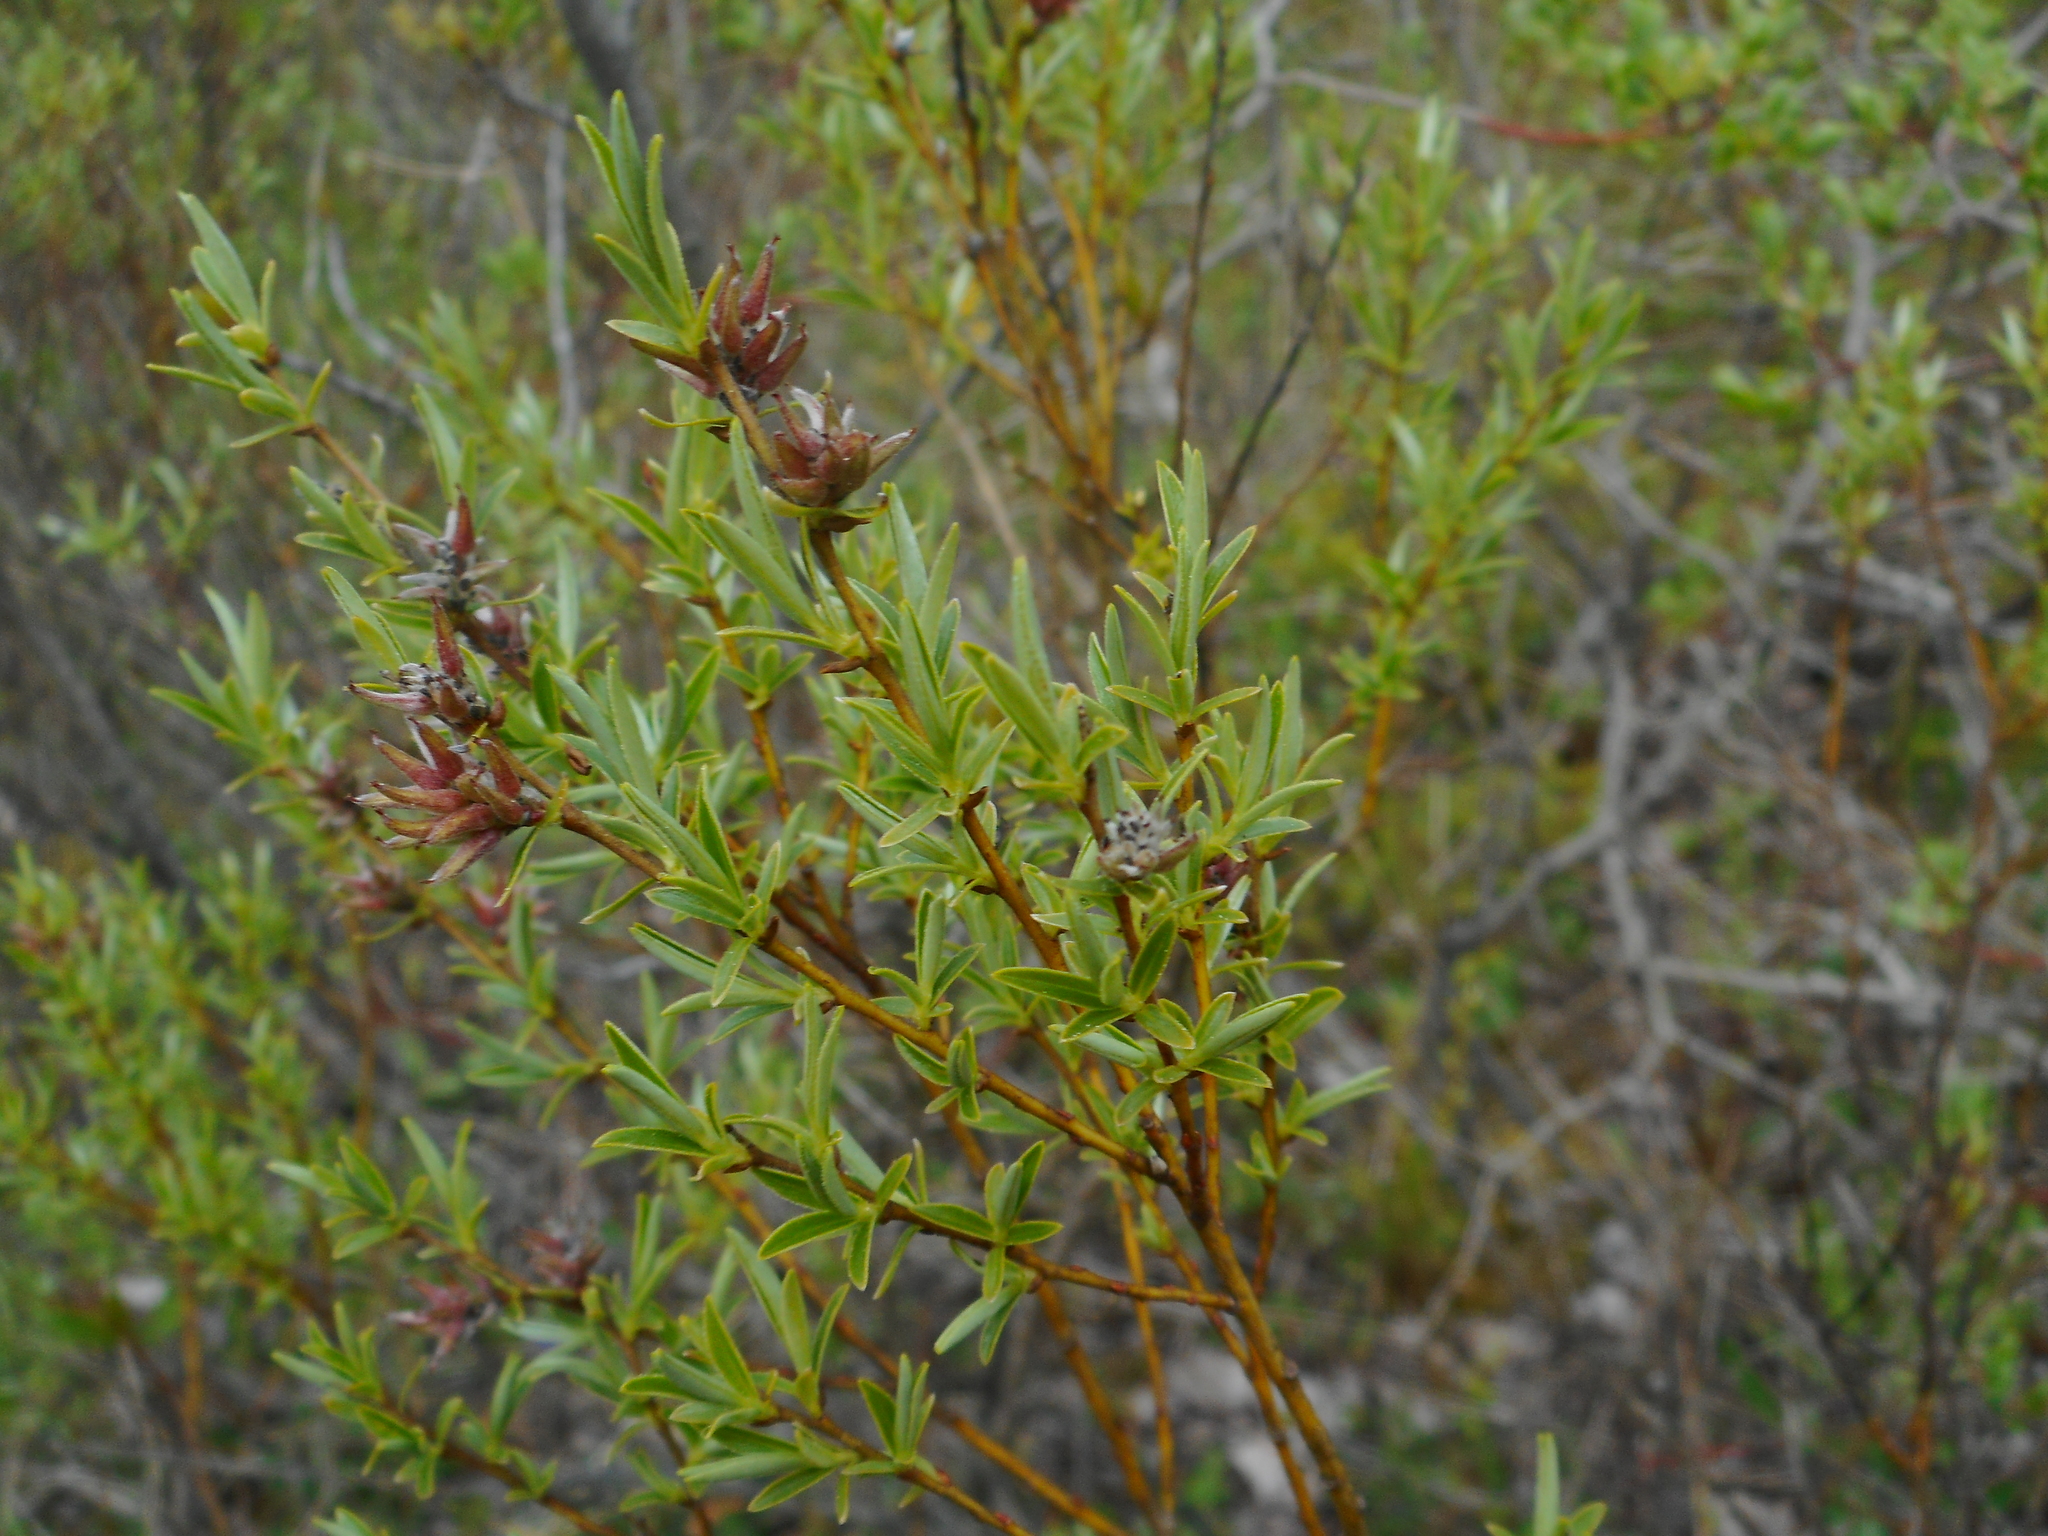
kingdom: Plantae
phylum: Tracheophyta
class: Magnoliopsida
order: Malpighiales
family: Salicaceae
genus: Salix
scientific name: Salix rosmarinifolia
